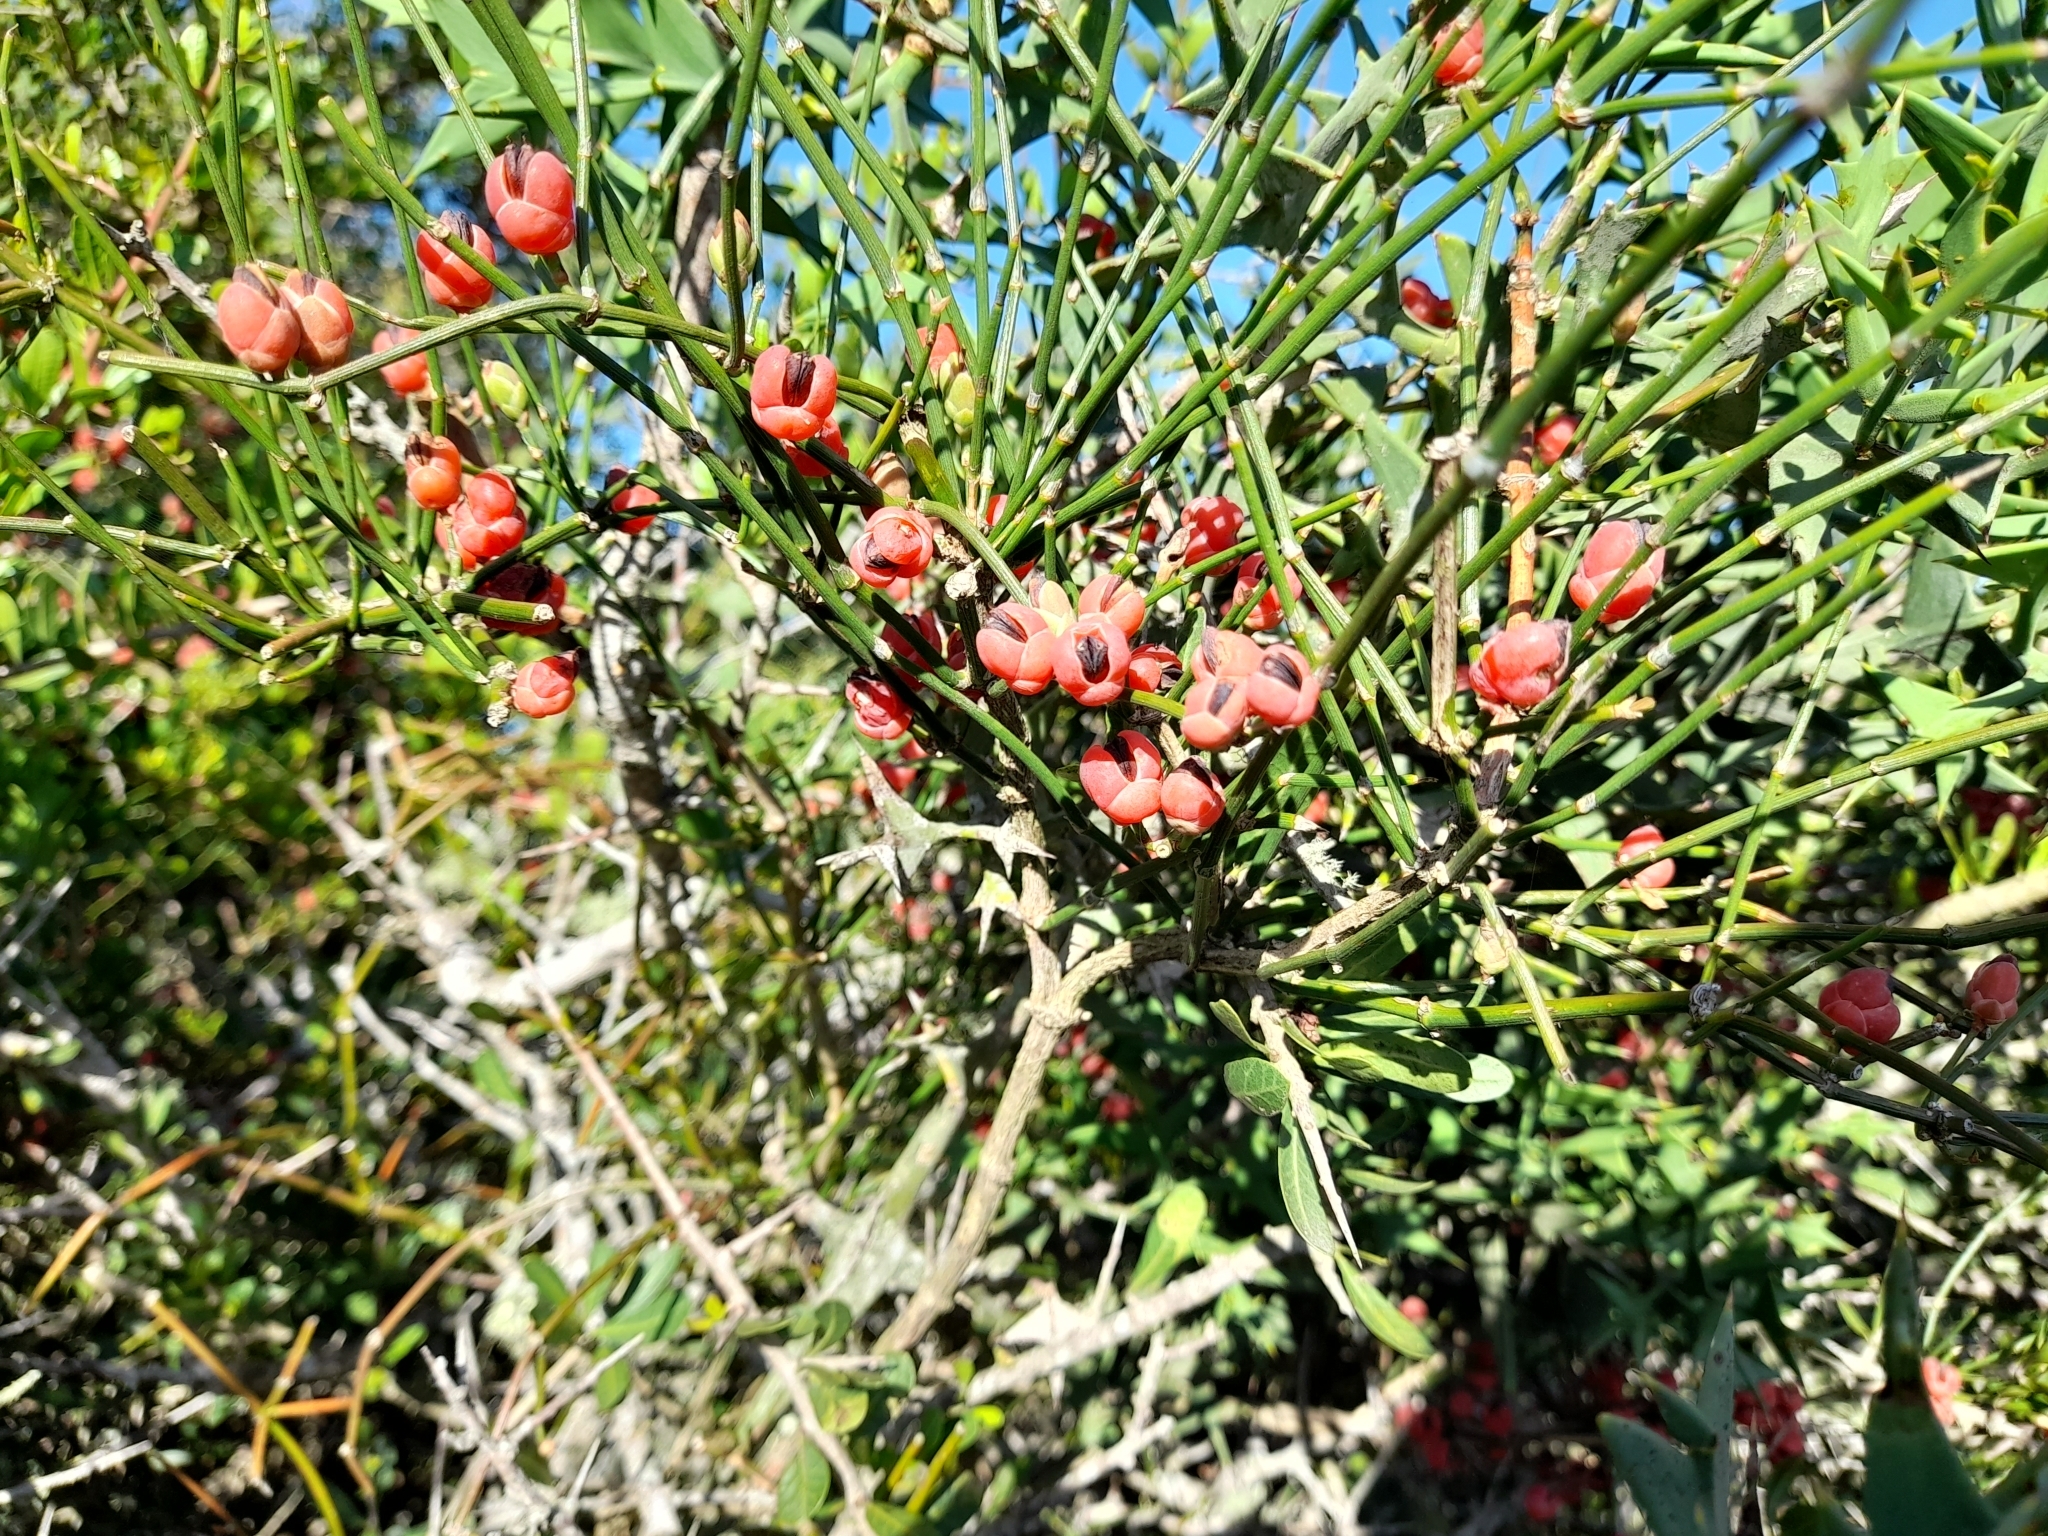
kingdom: Plantae
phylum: Tracheophyta
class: Gnetopsida
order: Ephedrales
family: Ephedraceae
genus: Ephedra
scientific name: Ephedra tweedieana
